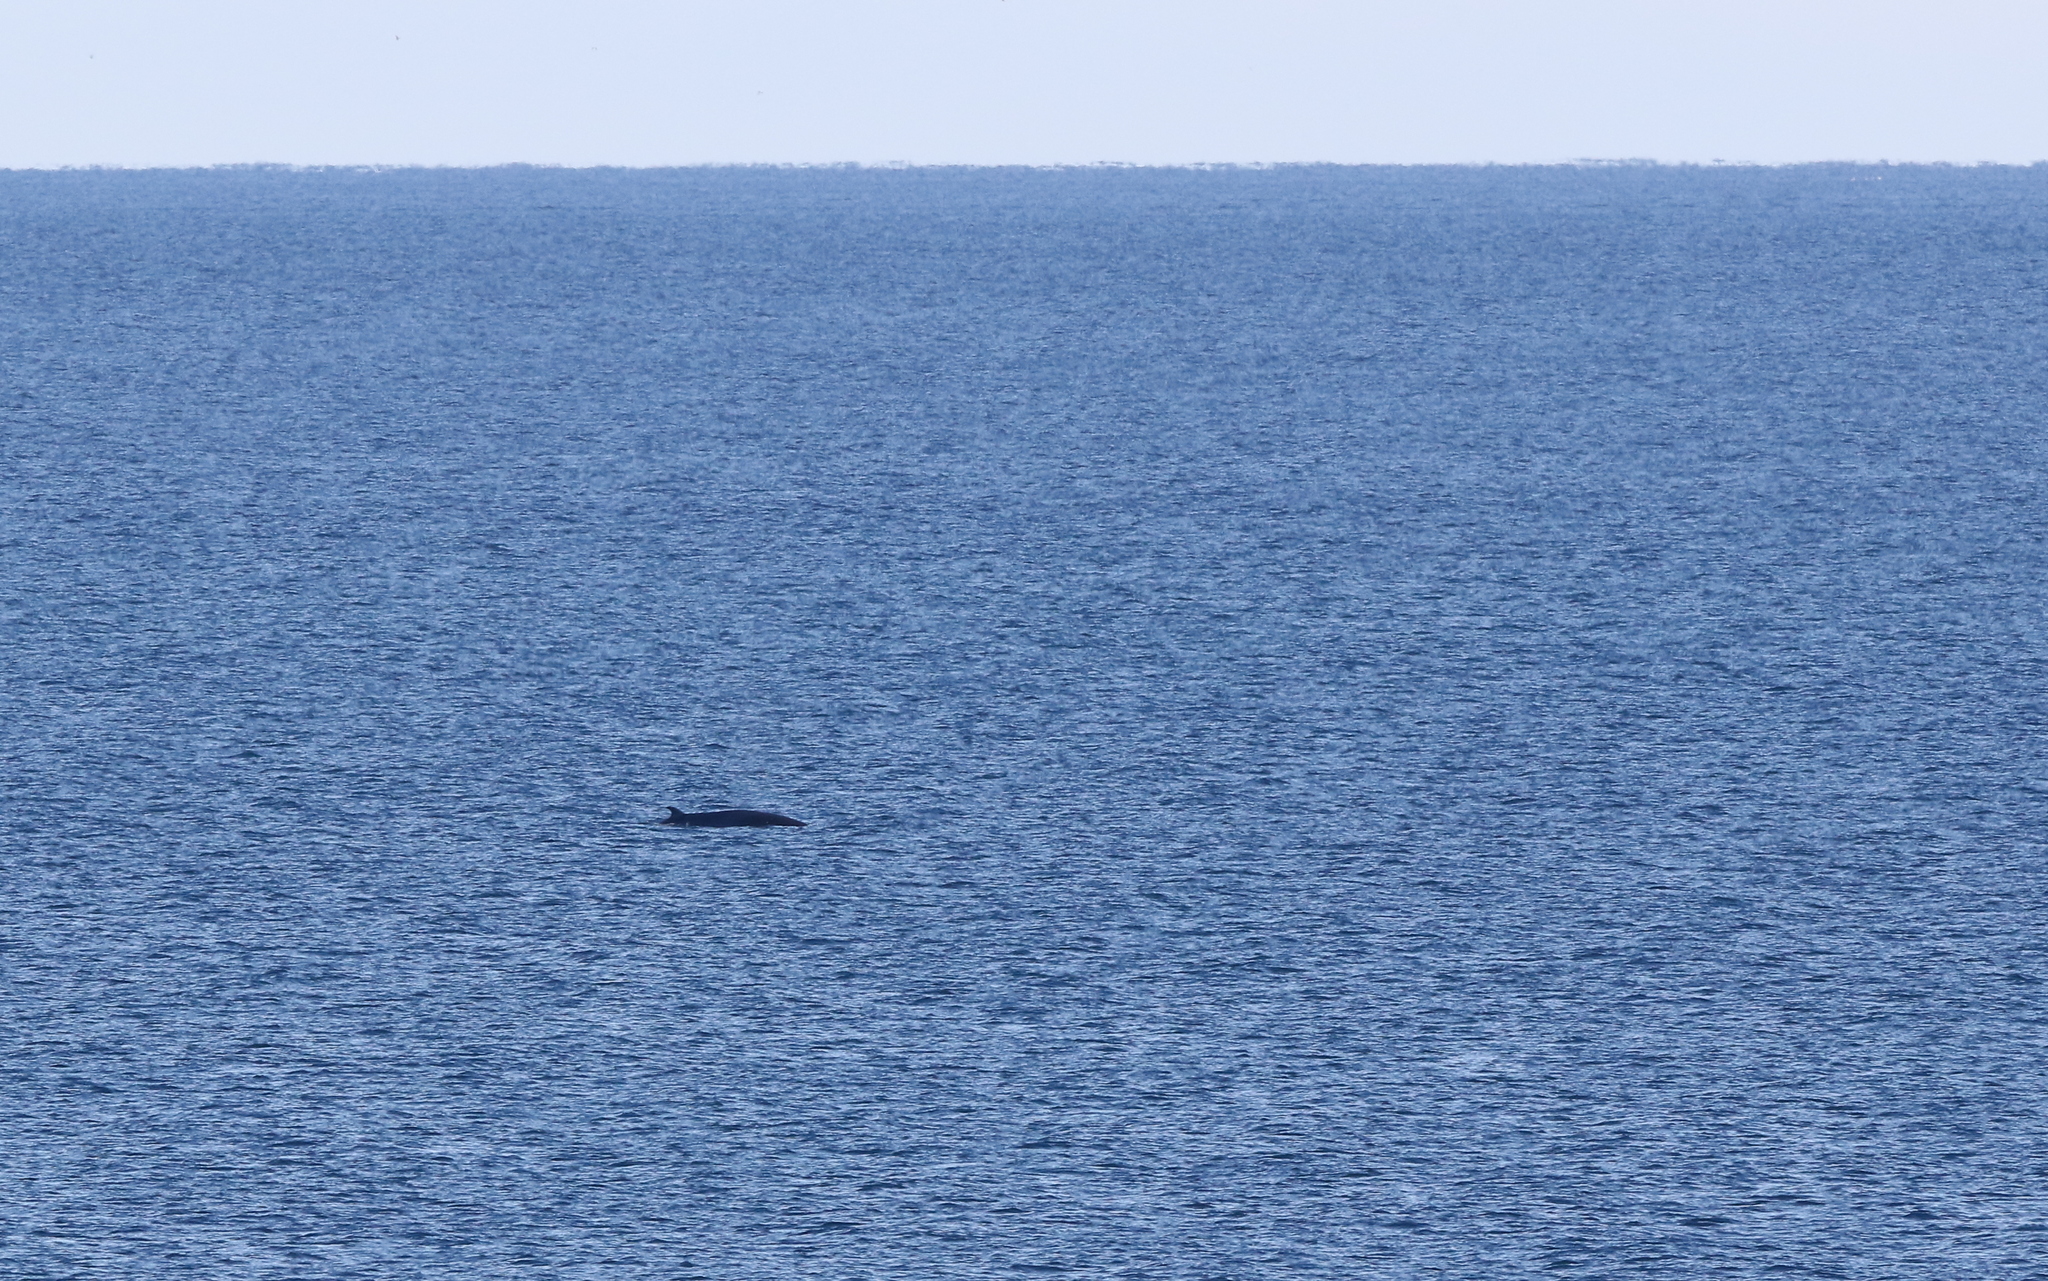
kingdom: Animalia
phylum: Chordata
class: Mammalia
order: Cetacea
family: Balaenopteridae
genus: Balaenoptera
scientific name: Balaenoptera acutorostrata
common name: Common minke whale
